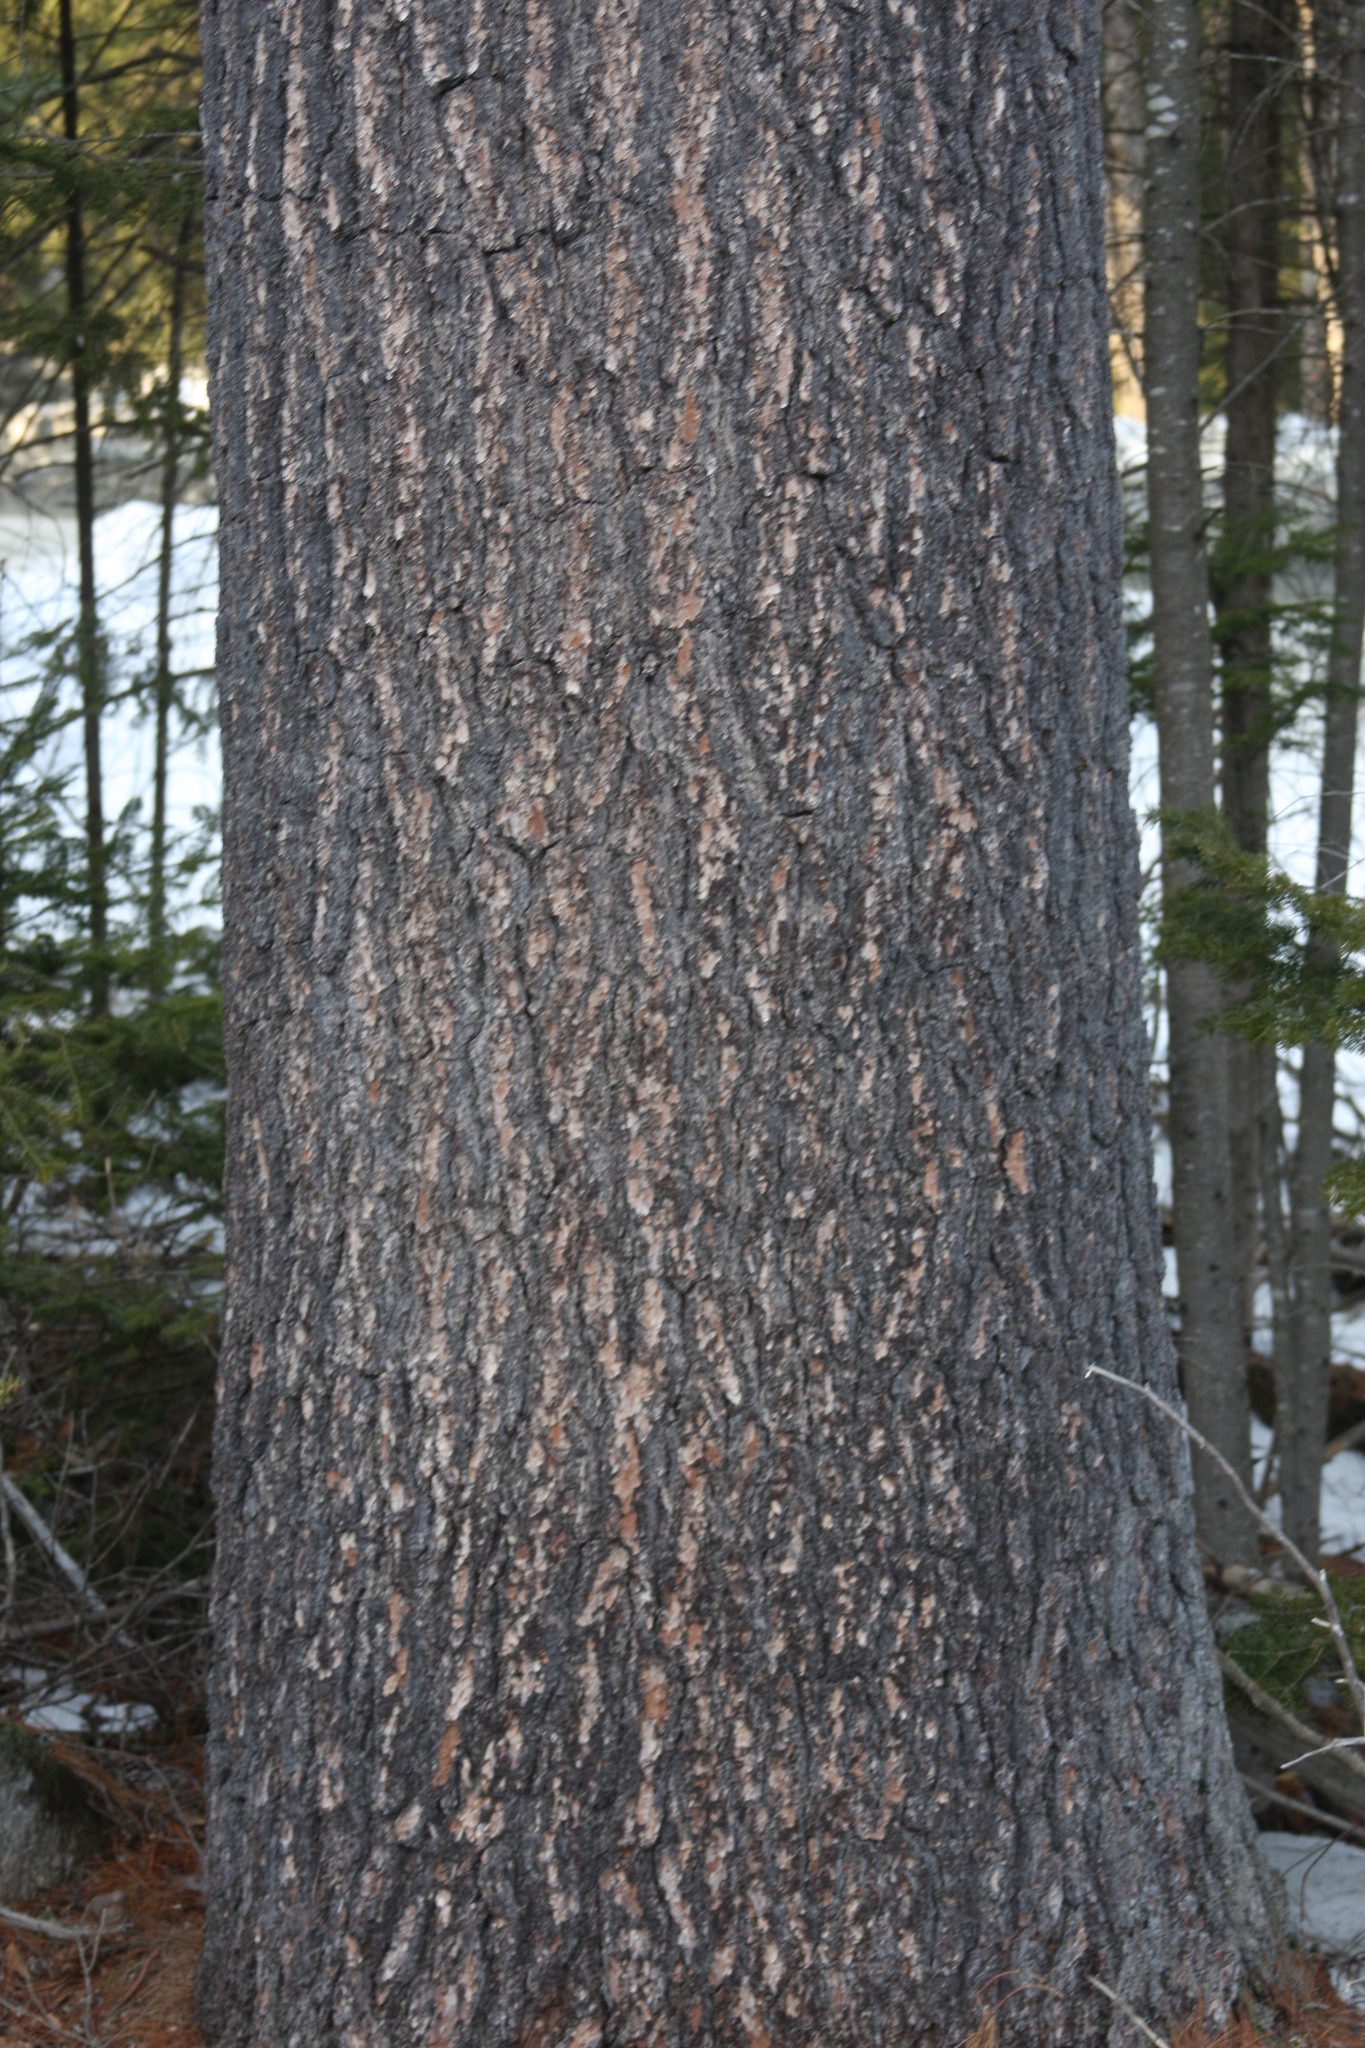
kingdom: Plantae
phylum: Tracheophyta
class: Pinopsida
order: Pinales
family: Pinaceae
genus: Pinus
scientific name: Pinus strobus
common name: Weymouth pine
